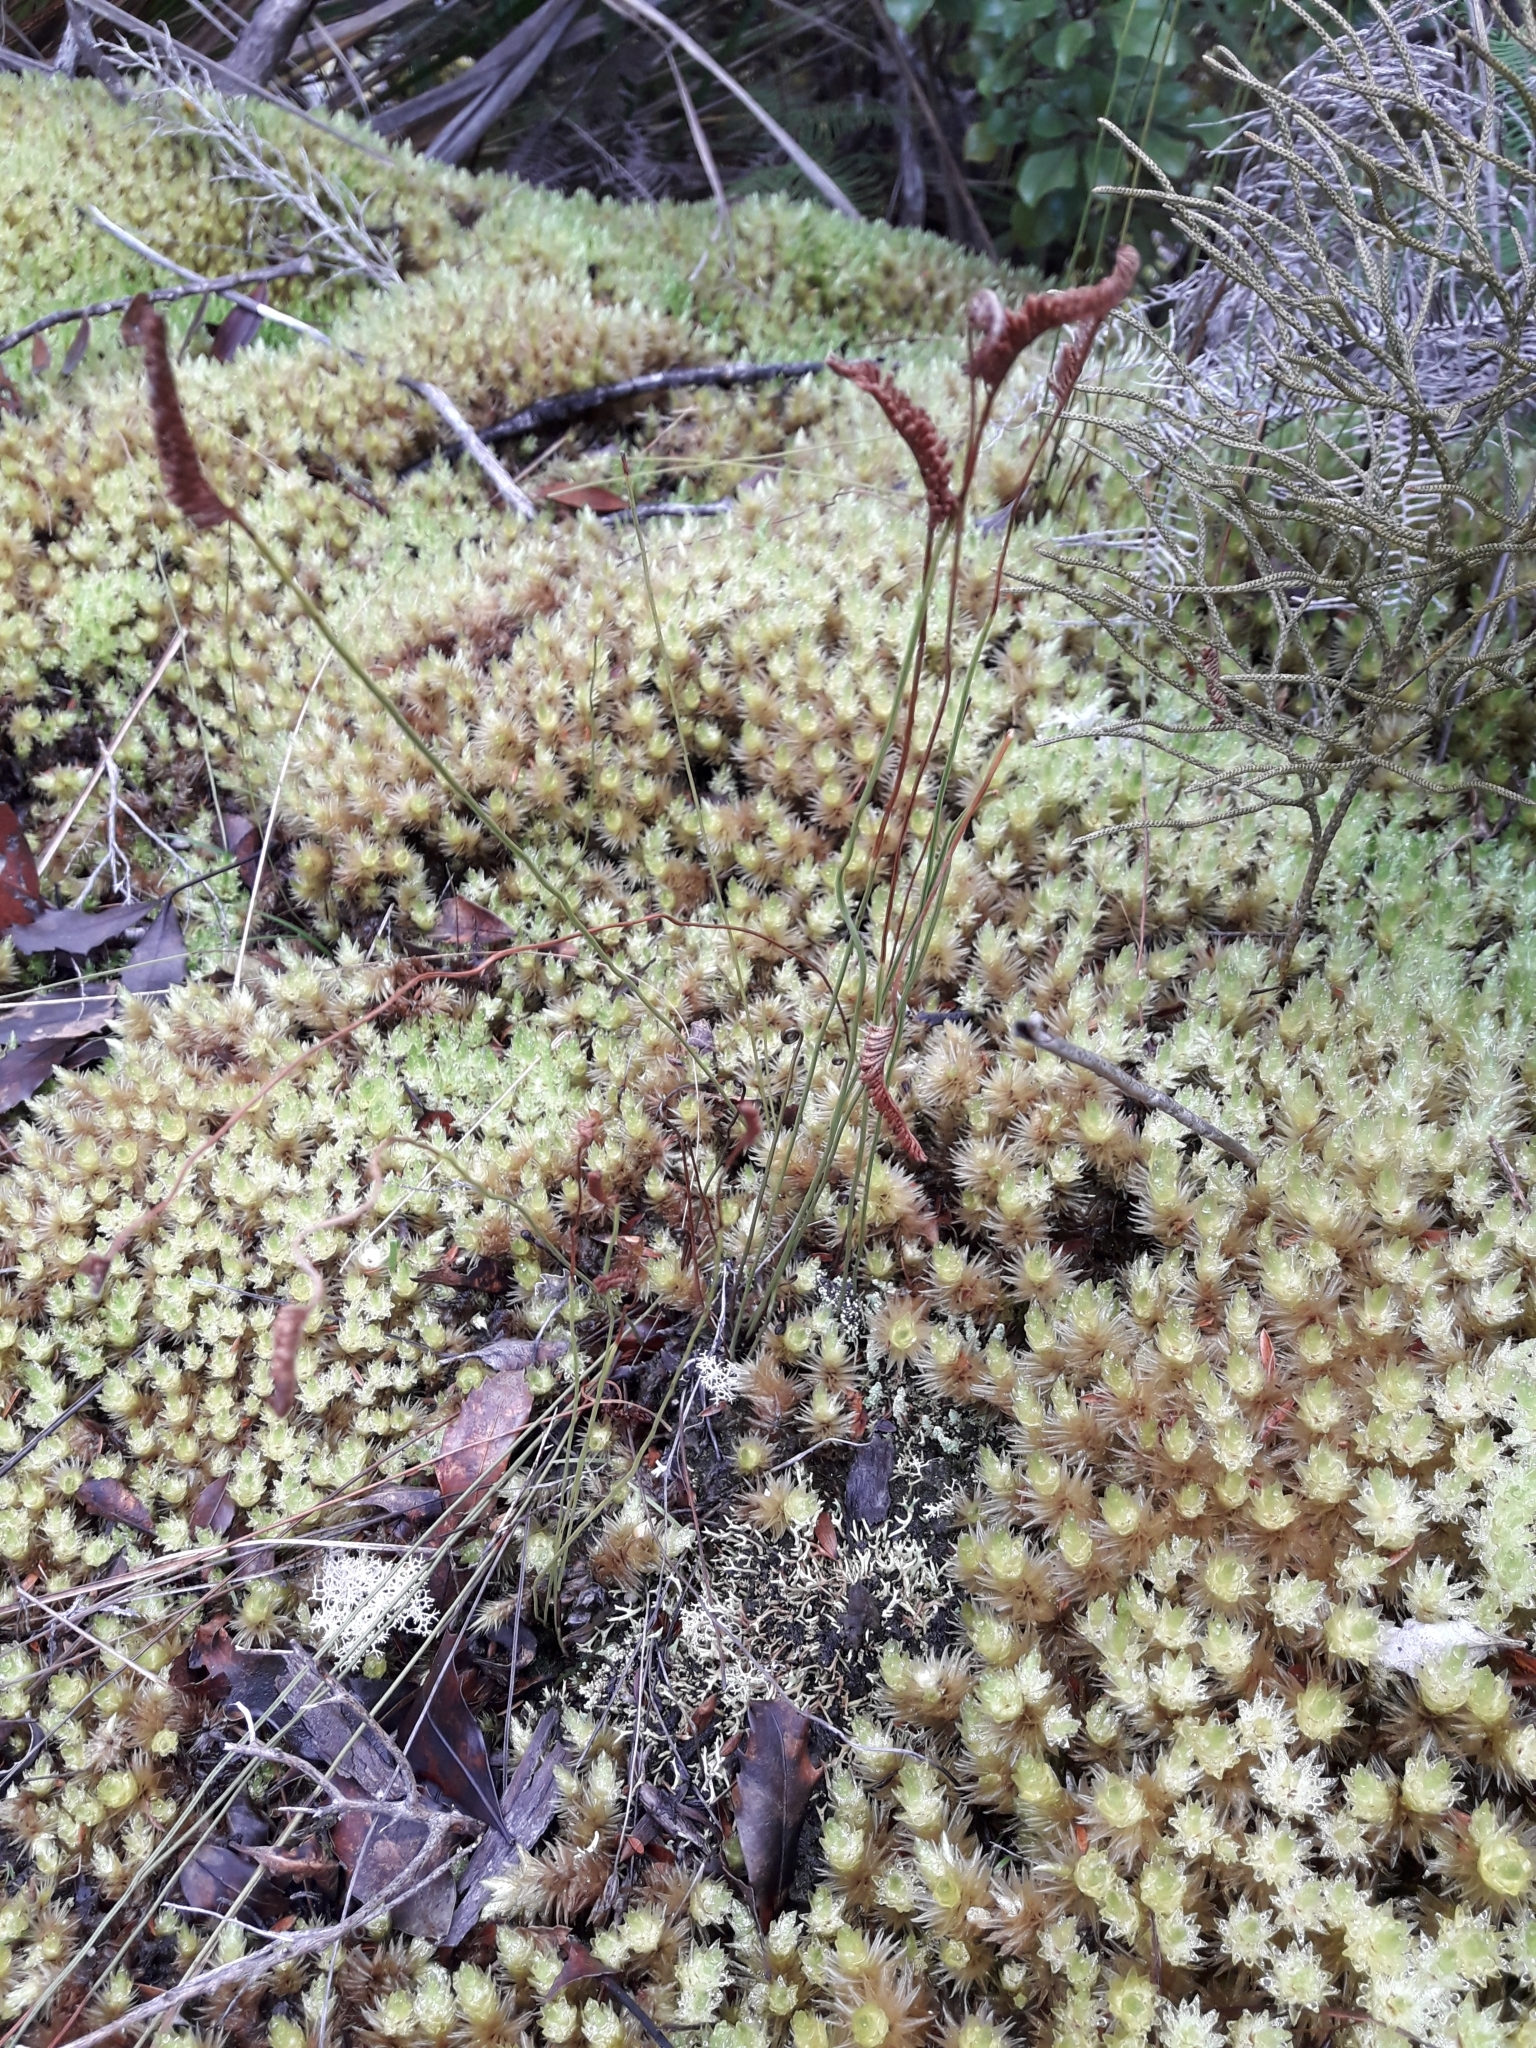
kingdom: Plantae
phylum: Tracheophyta
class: Polypodiopsida
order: Schizaeales
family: Schizaeaceae
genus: Microschizaea
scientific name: Microschizaea fistulosa
